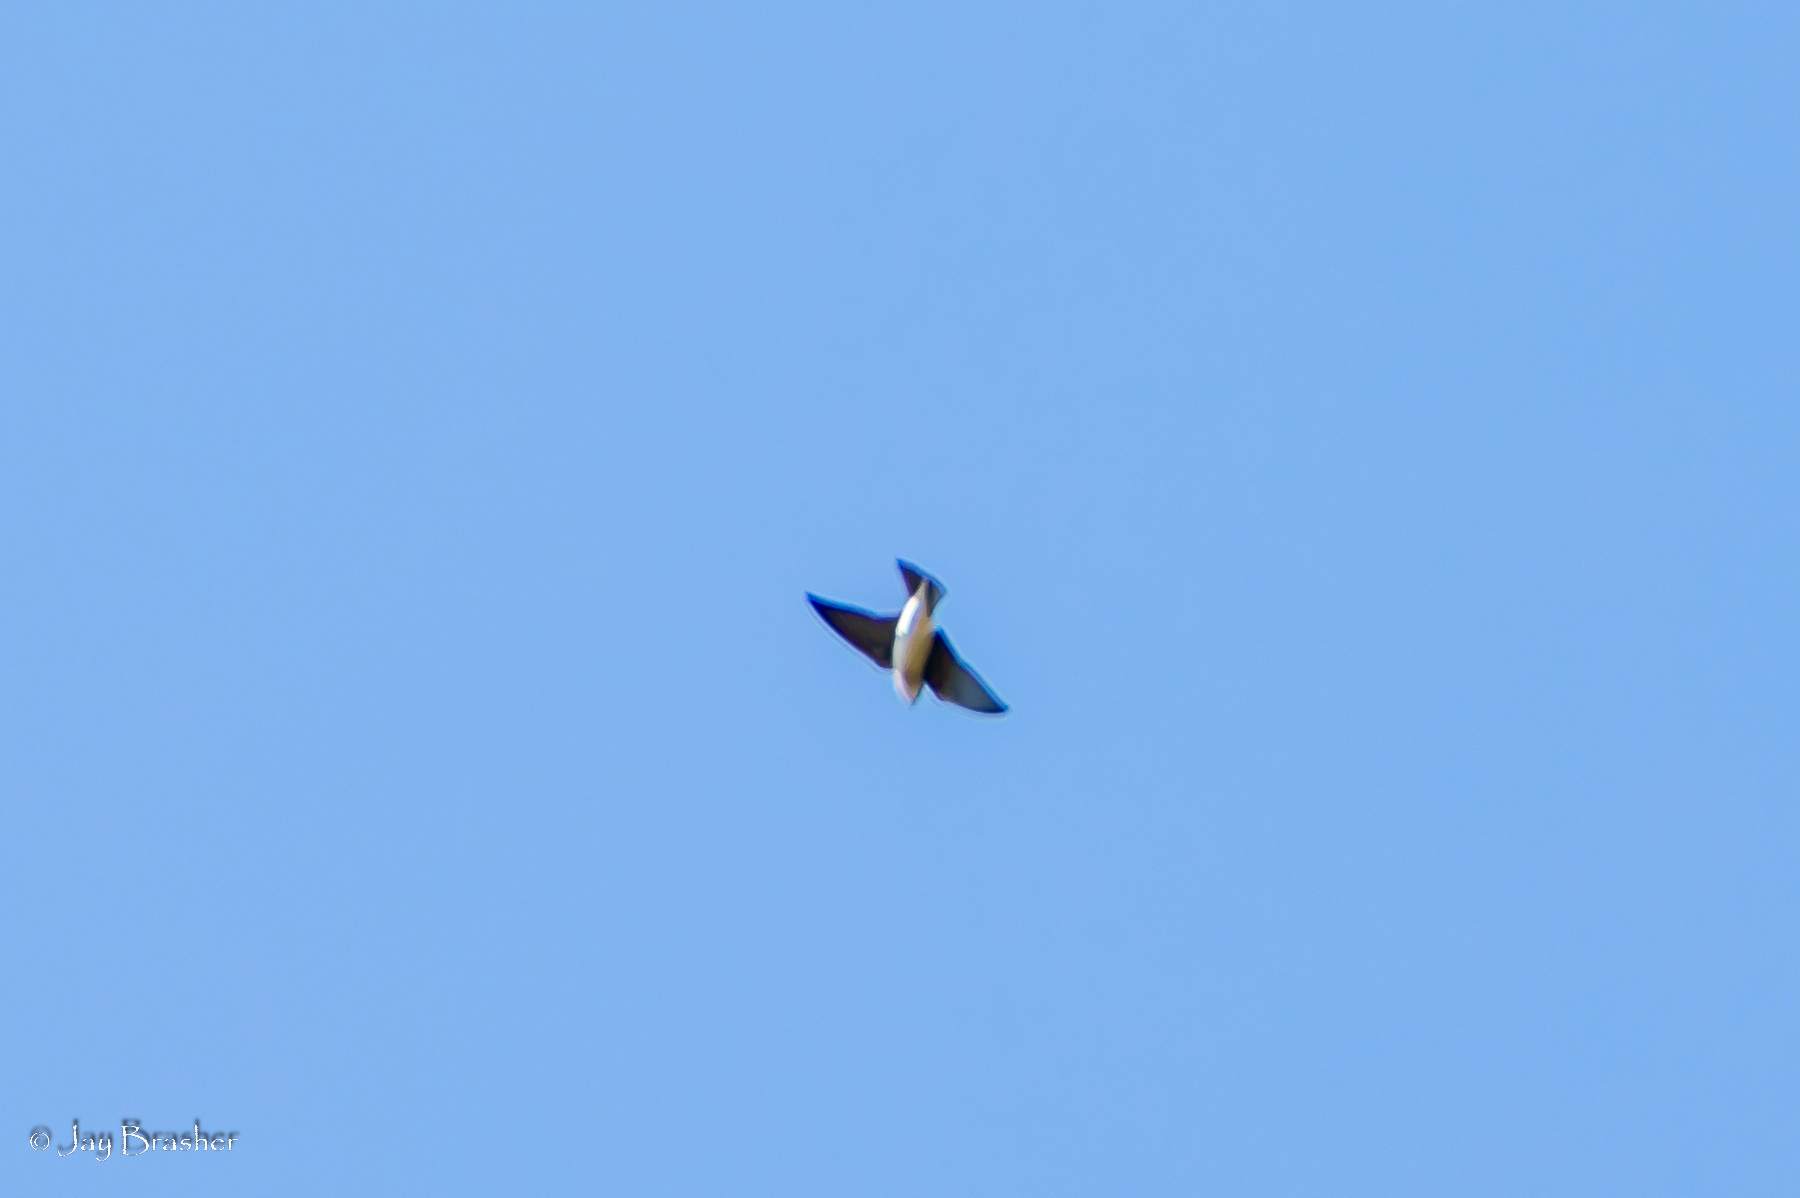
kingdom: Animalia
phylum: Chordata
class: Aves
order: Passeriformes
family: Hirundinidae
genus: Tachycineta
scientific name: Tachycineta bicolor
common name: Tree swallow
